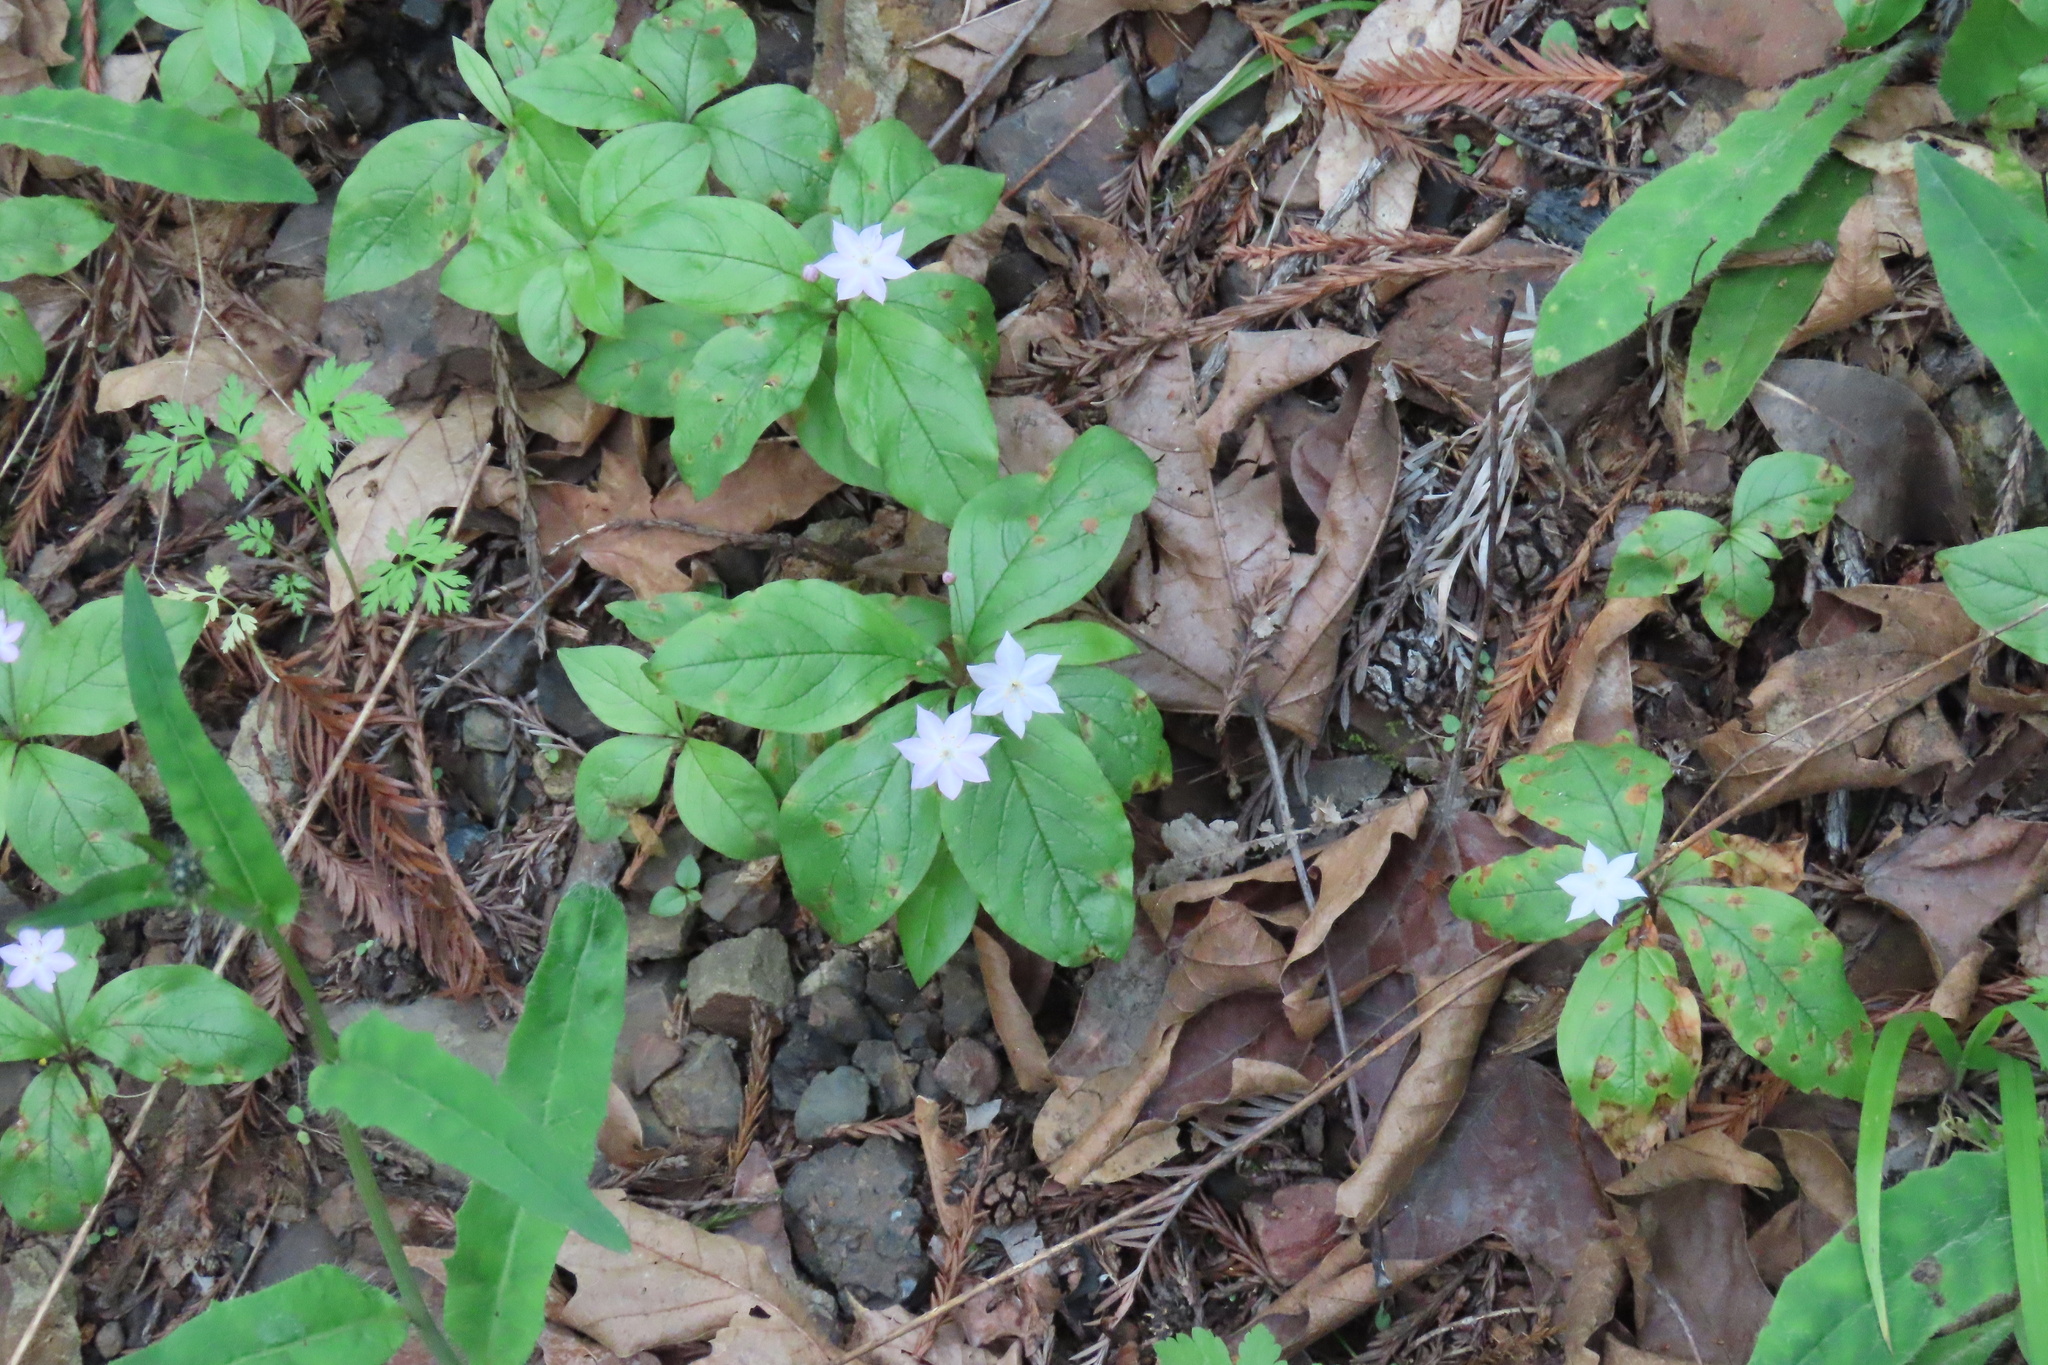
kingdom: Plantae
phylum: Tracheophyta
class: Magnoliopsida
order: Ericales
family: Primulaceae
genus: Lysimachia
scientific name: Lysimachia latifolia
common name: Pacific starflower
